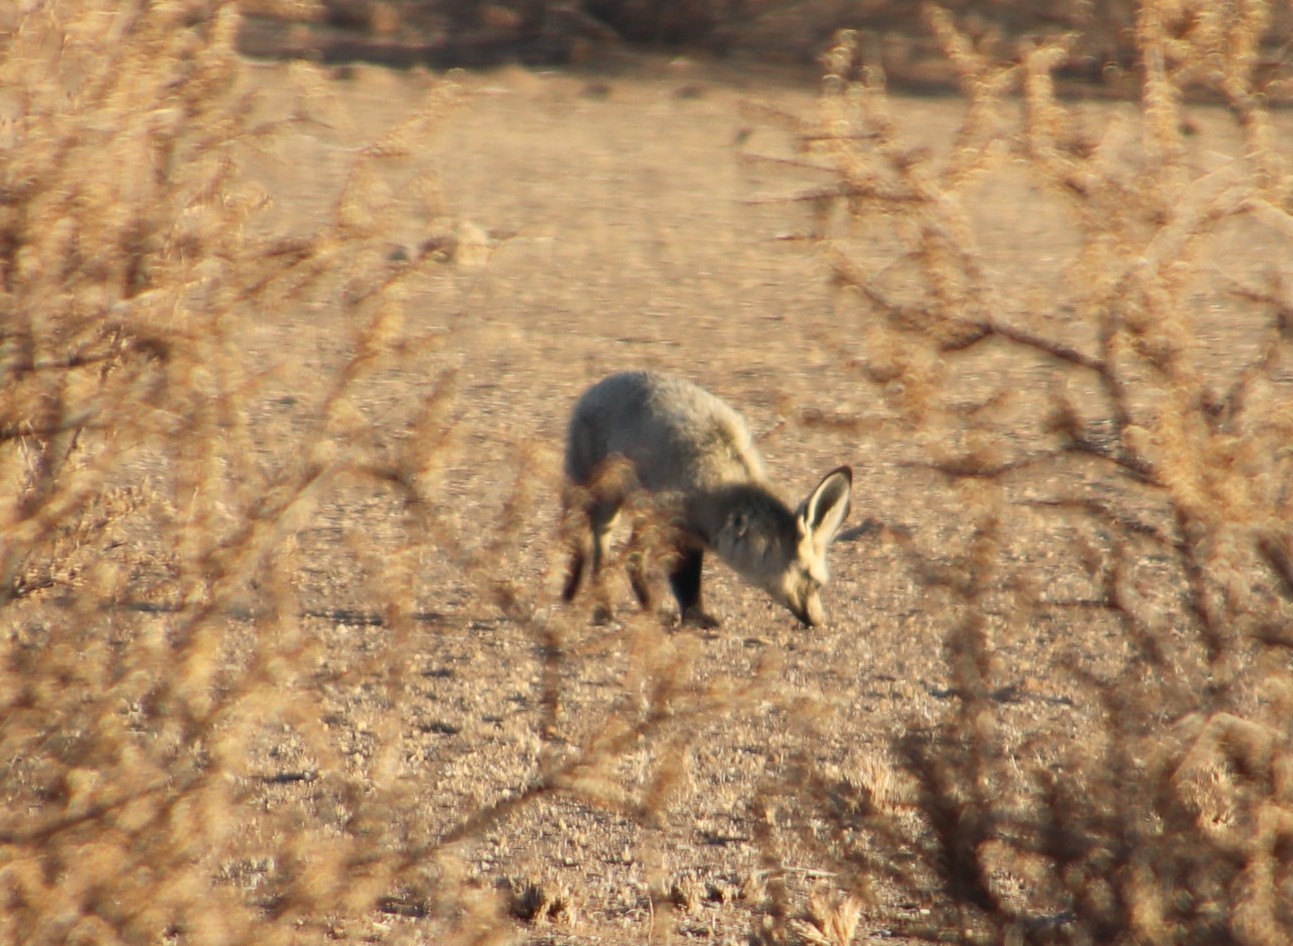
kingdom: Animalia
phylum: Chordata
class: Mammalia
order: Carnivora
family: Canidae
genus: Otocyon
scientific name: Otocyon megalotis
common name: Bat-eared fox
